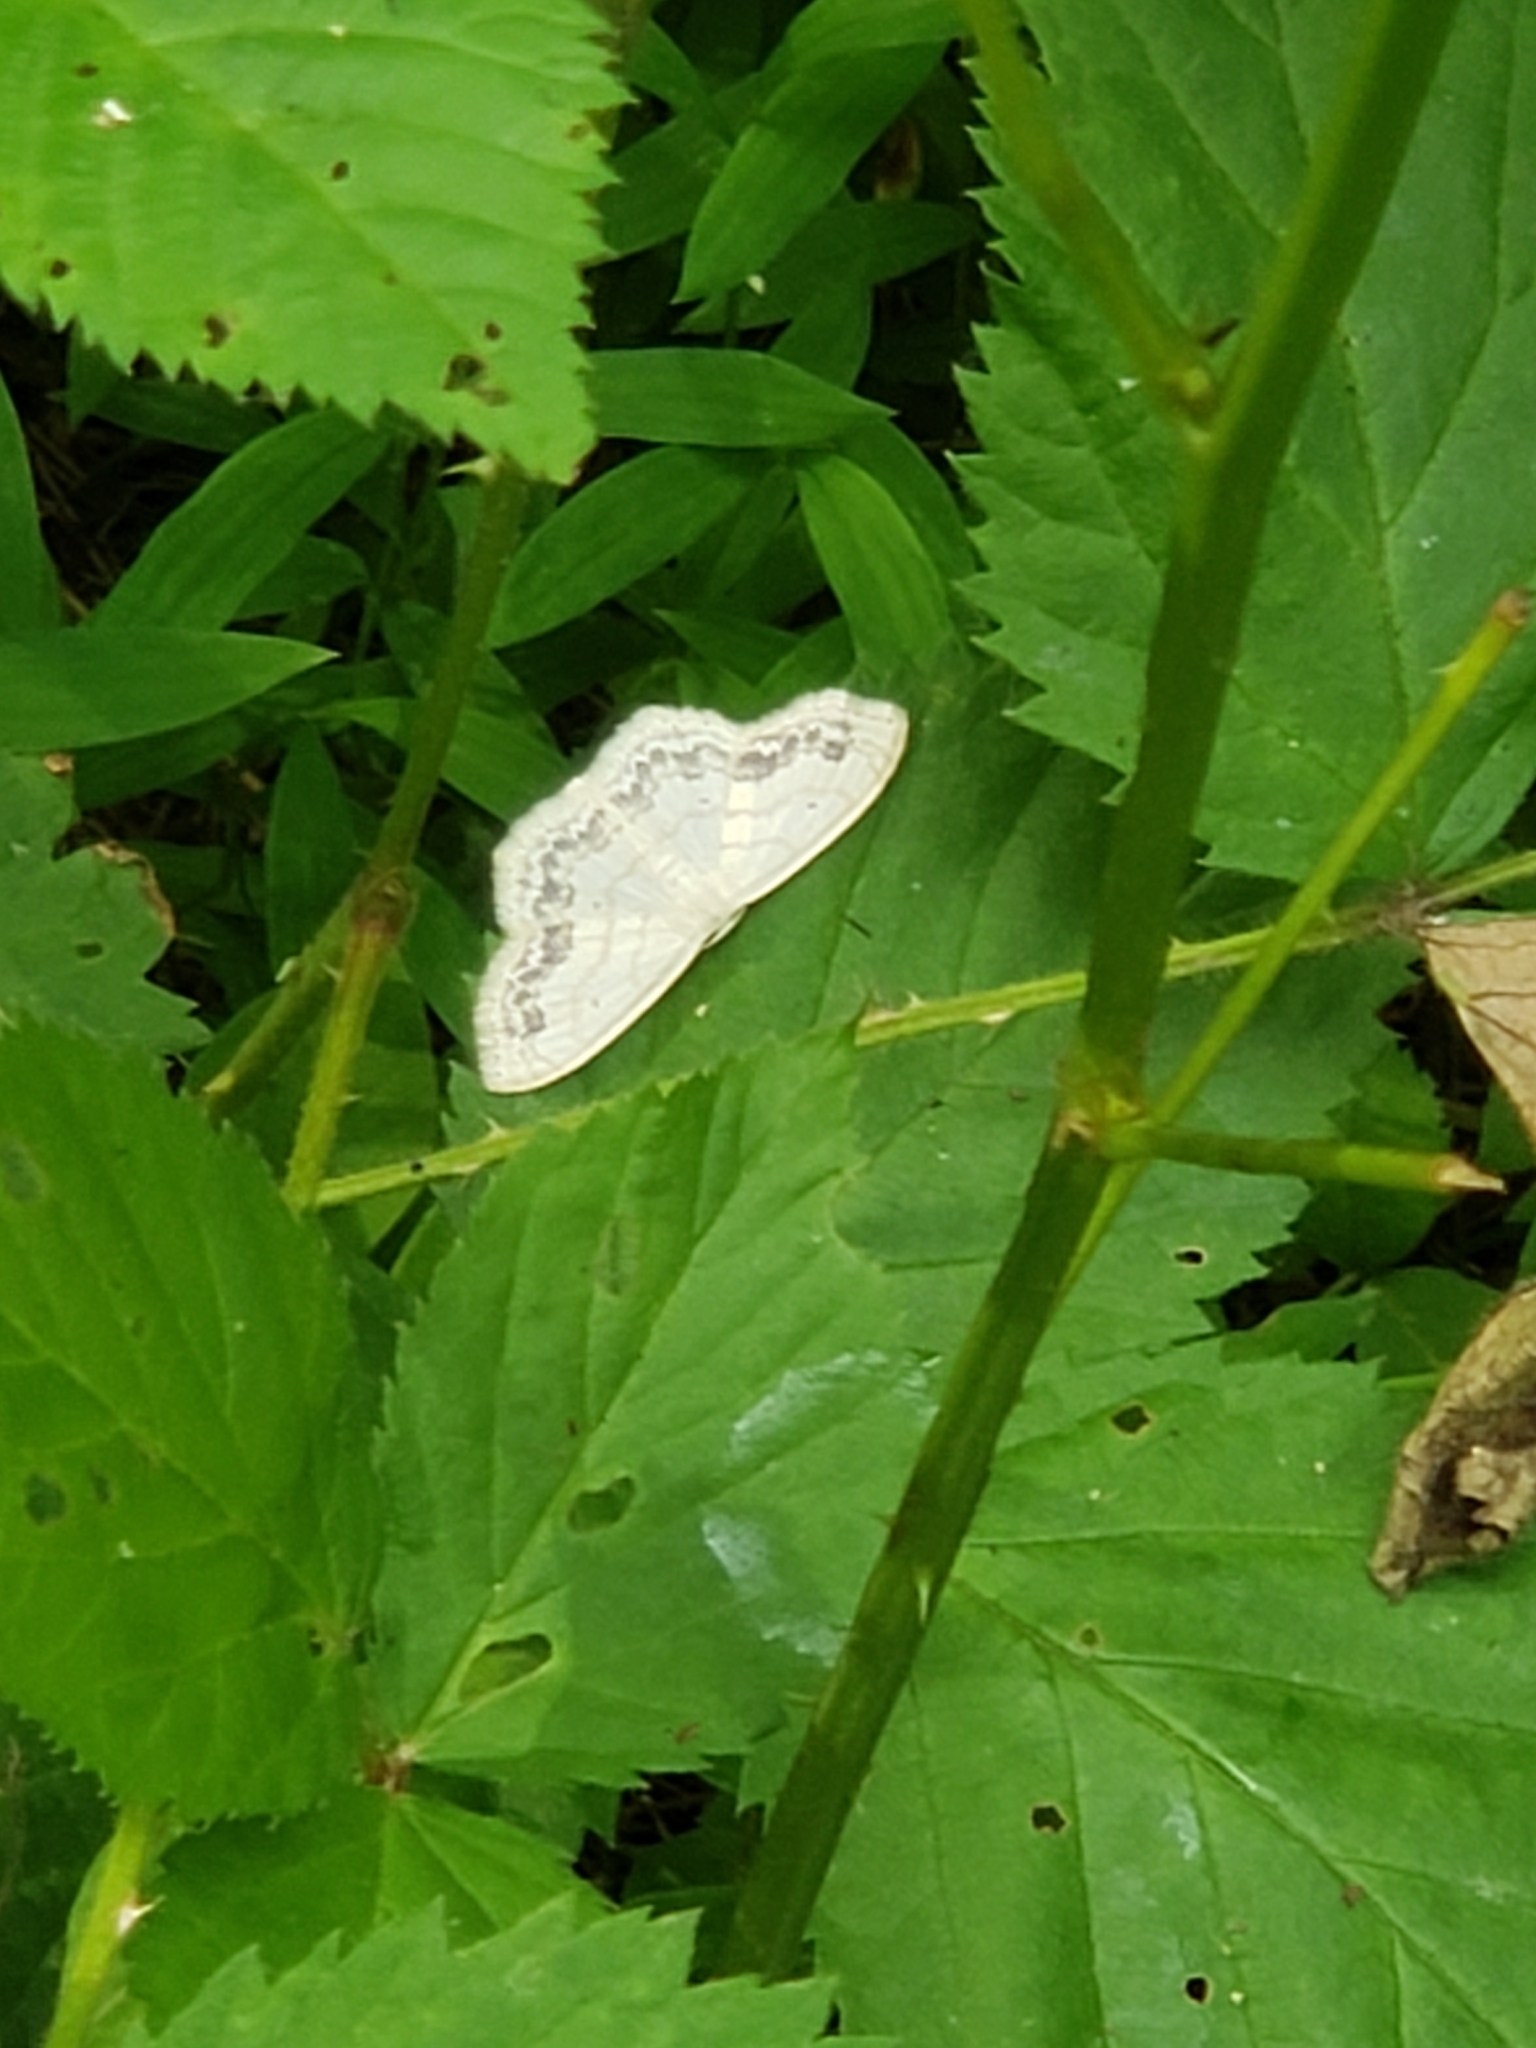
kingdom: Animalia
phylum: Arthropoda
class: Insecta
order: Lepidoptera
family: Geometridae
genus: Scopula
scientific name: Scopula limboundata
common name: Large lace border
